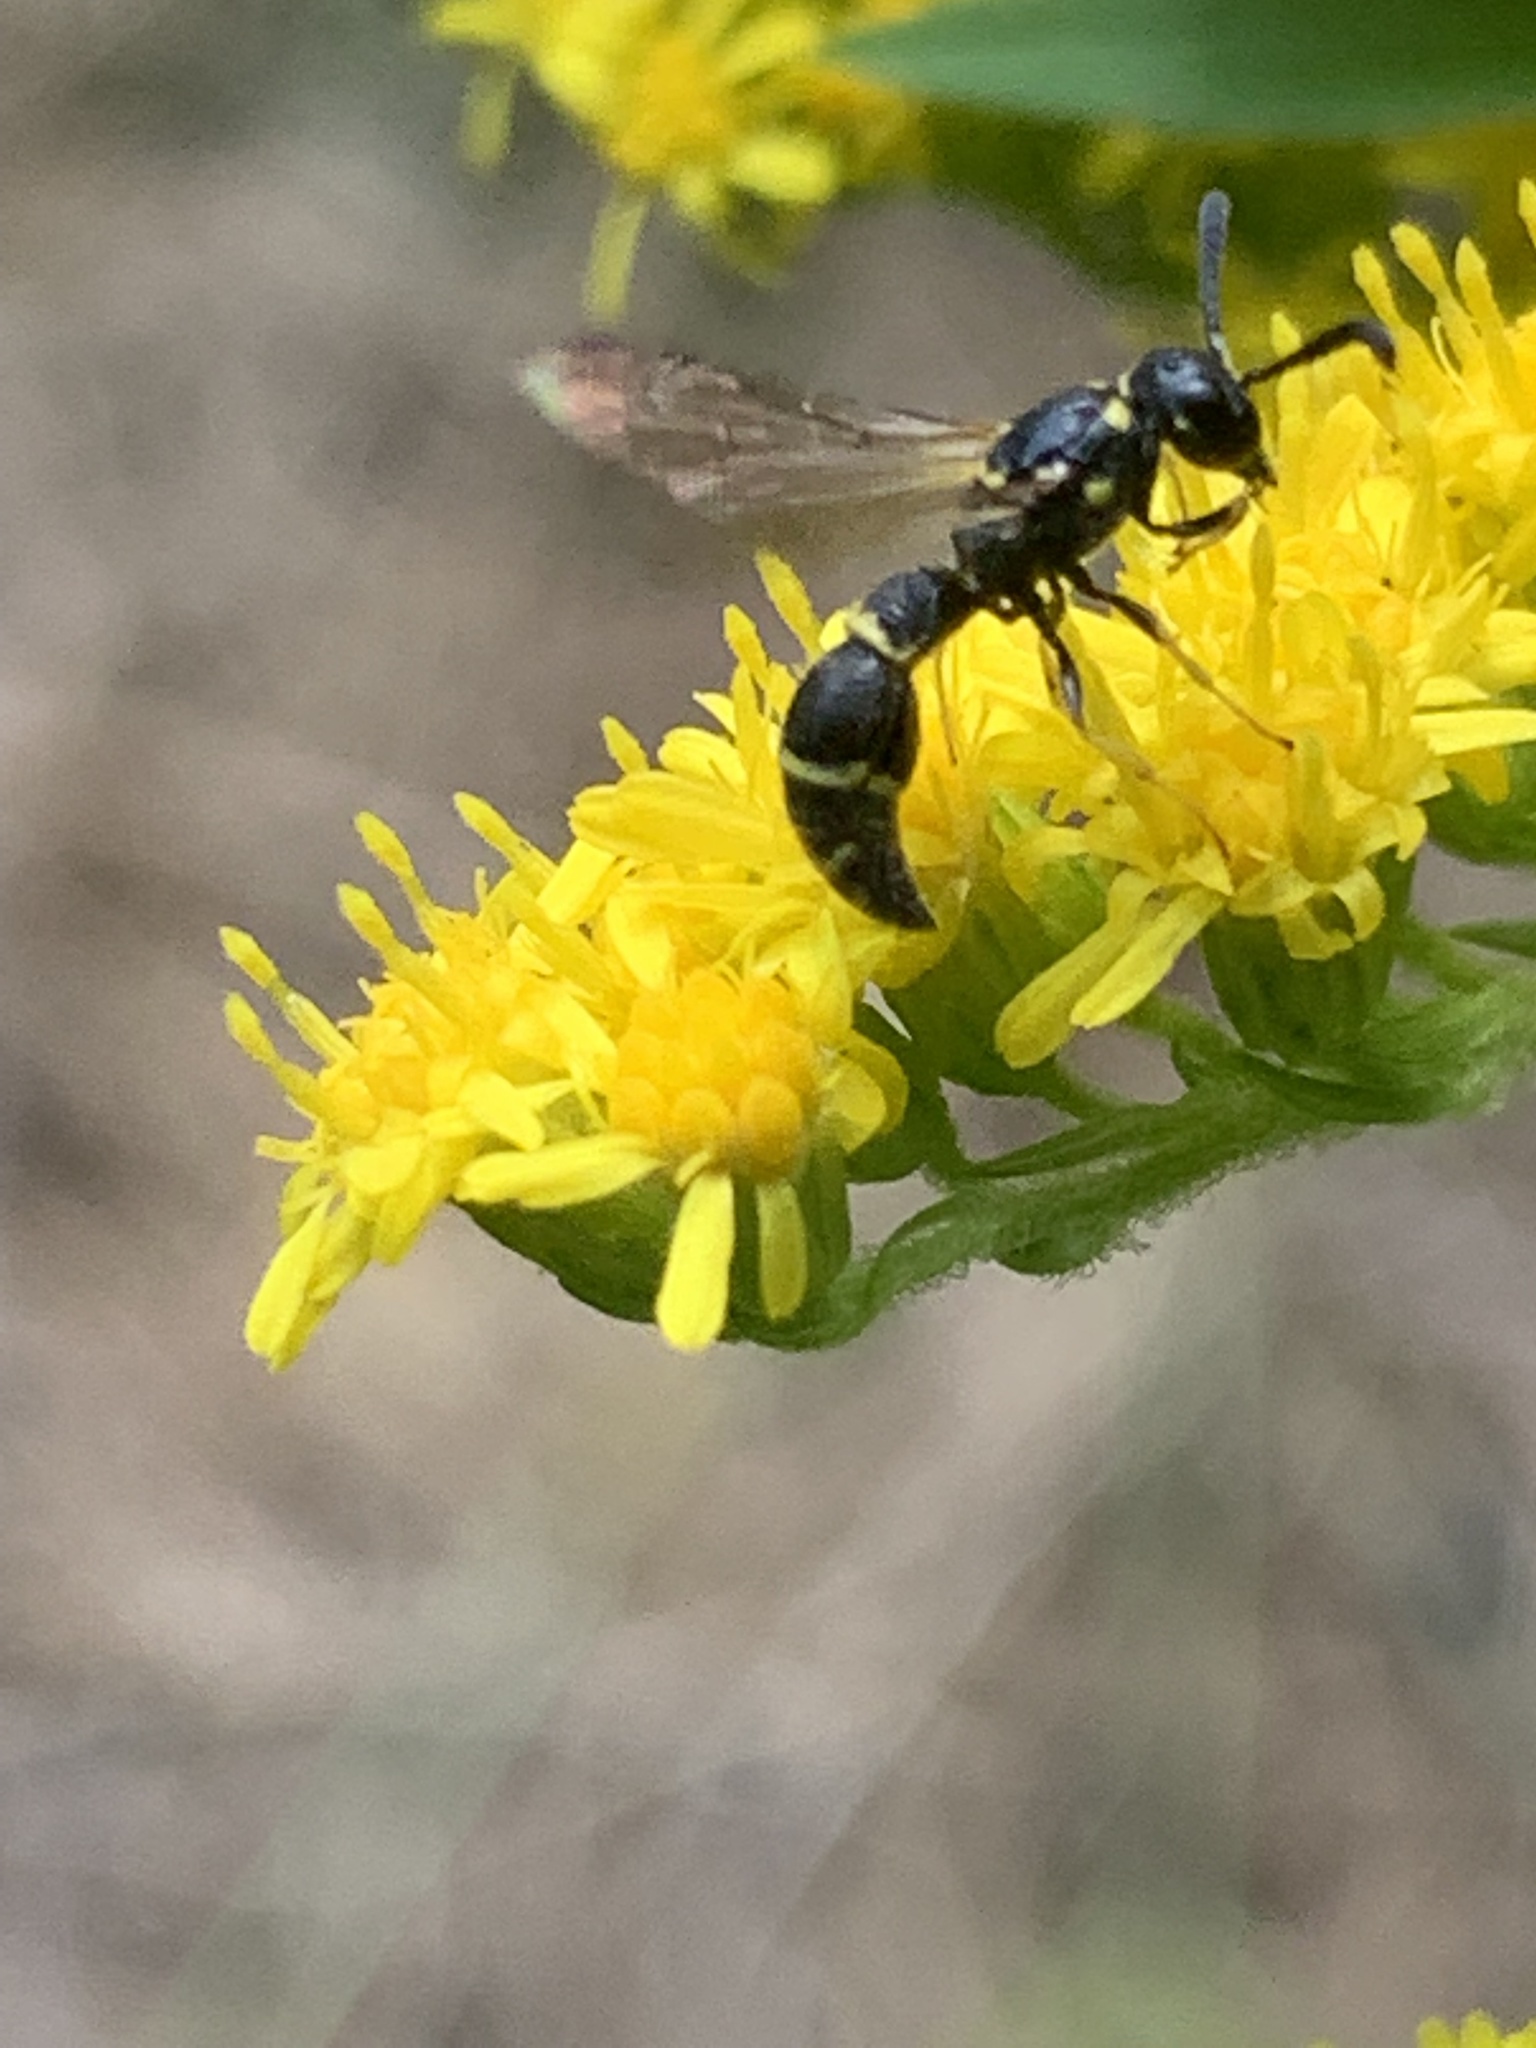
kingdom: Animalia
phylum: Arthropoda
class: Insecta
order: Hymenoptera
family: Eumenidae
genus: Symmorphus
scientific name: Symmorphus
